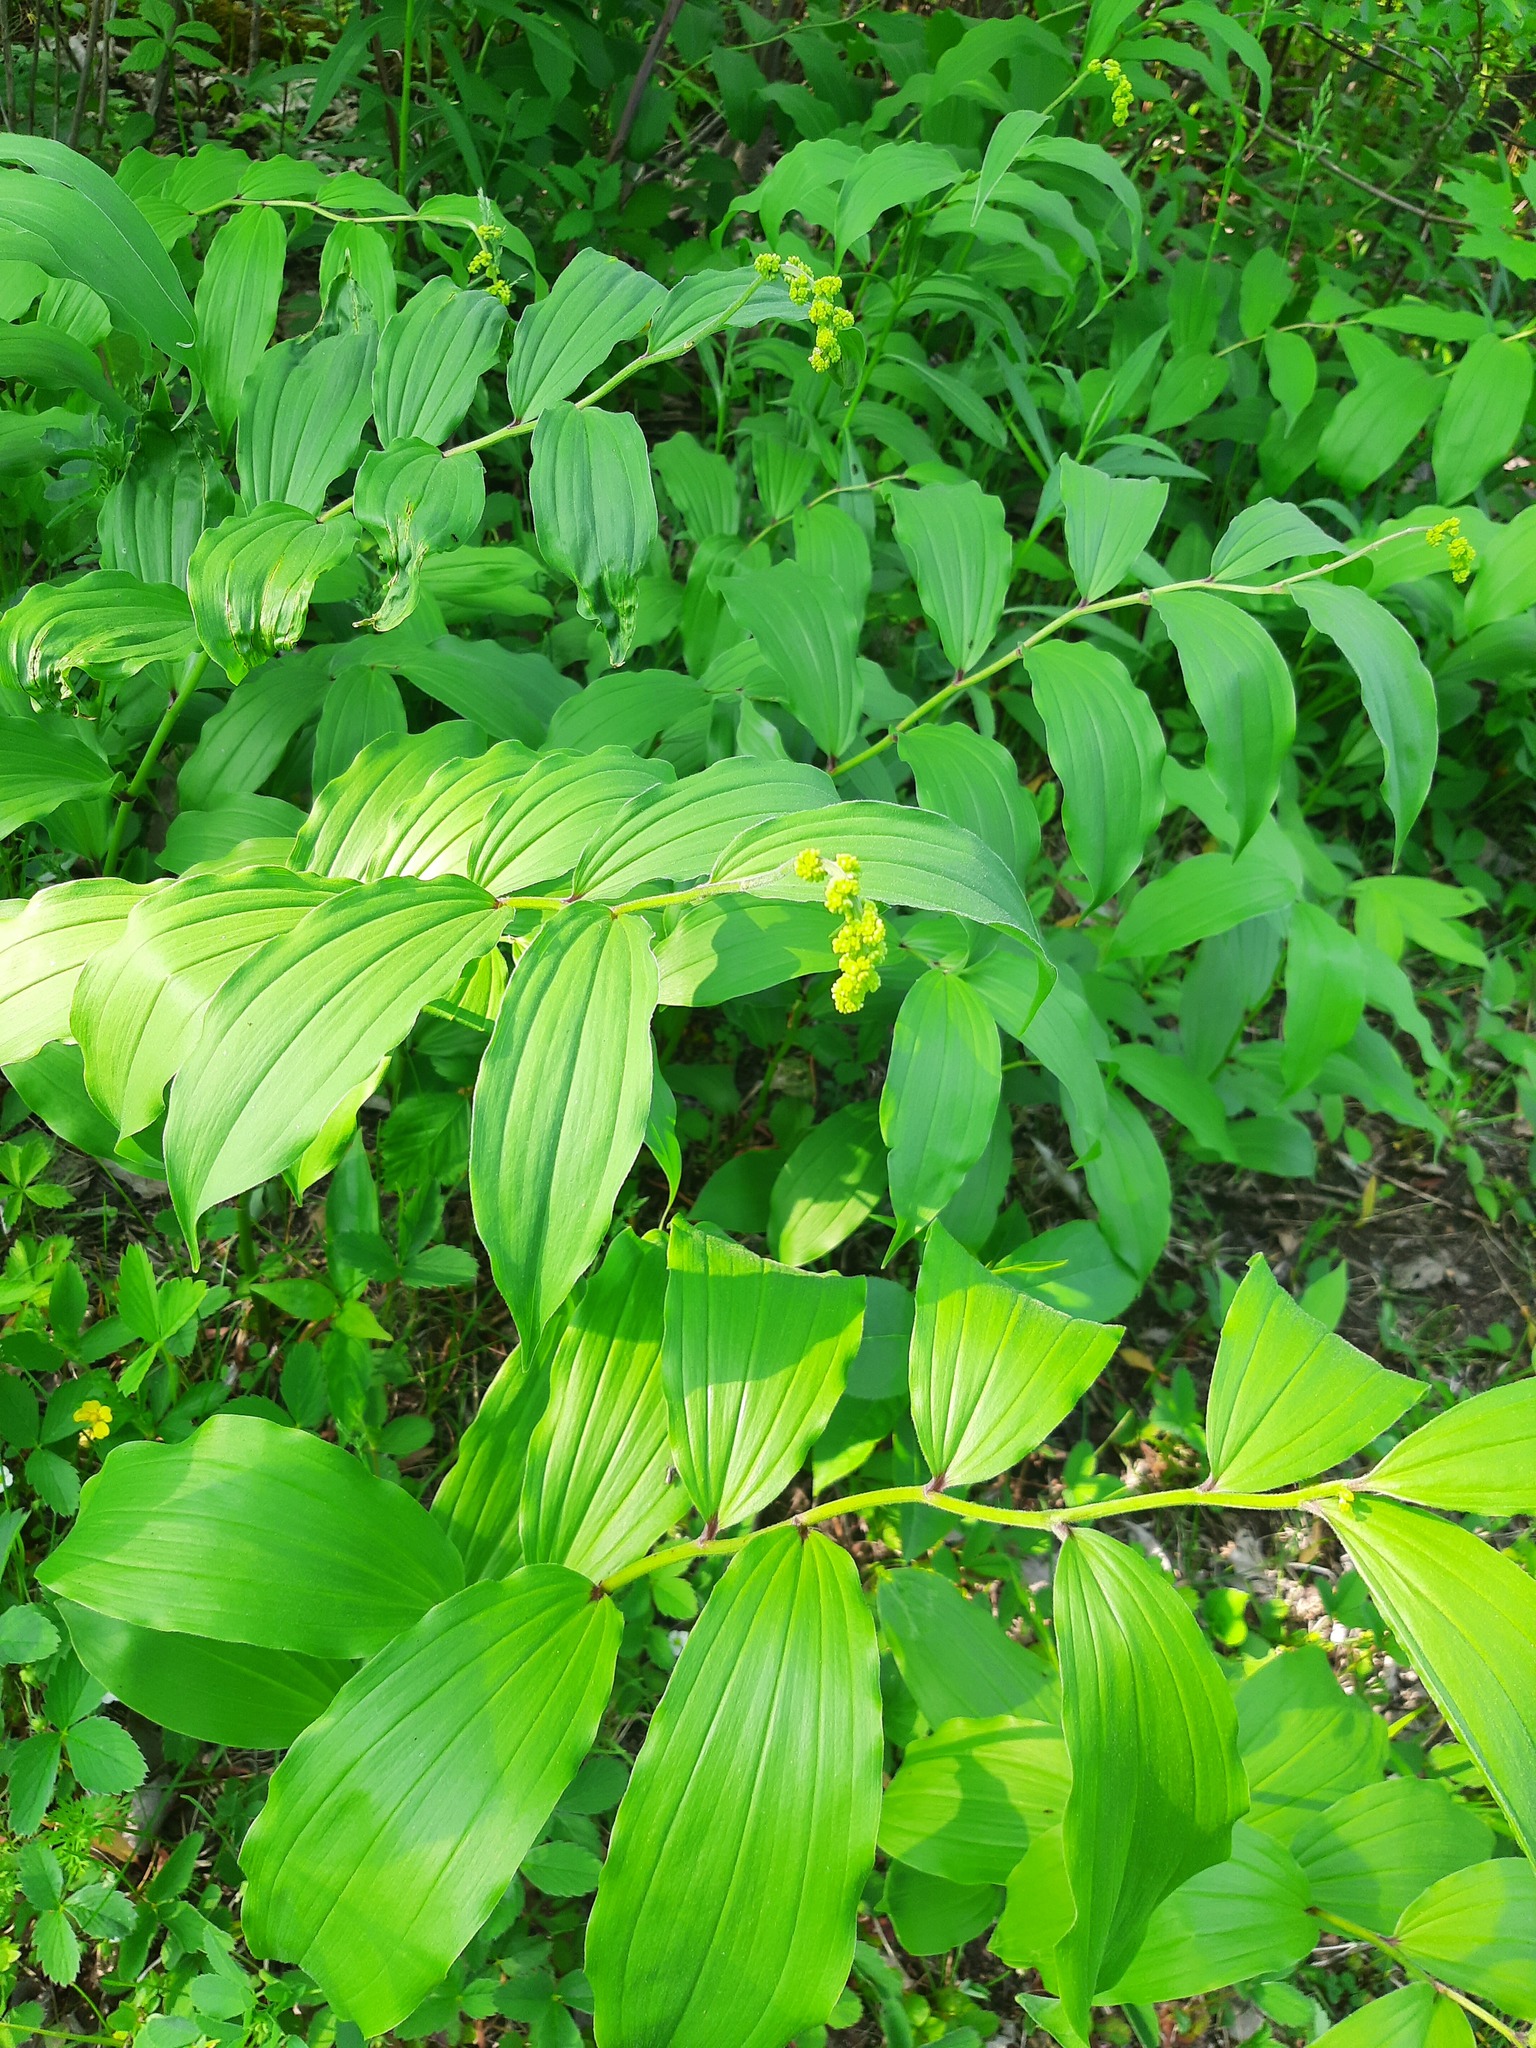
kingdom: Plantae
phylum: Tracheophyta
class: Liliopsida
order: Asparagales
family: Asparagaceae
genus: Maianthemum
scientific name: Maianthemum racemosum
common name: False spikenard
